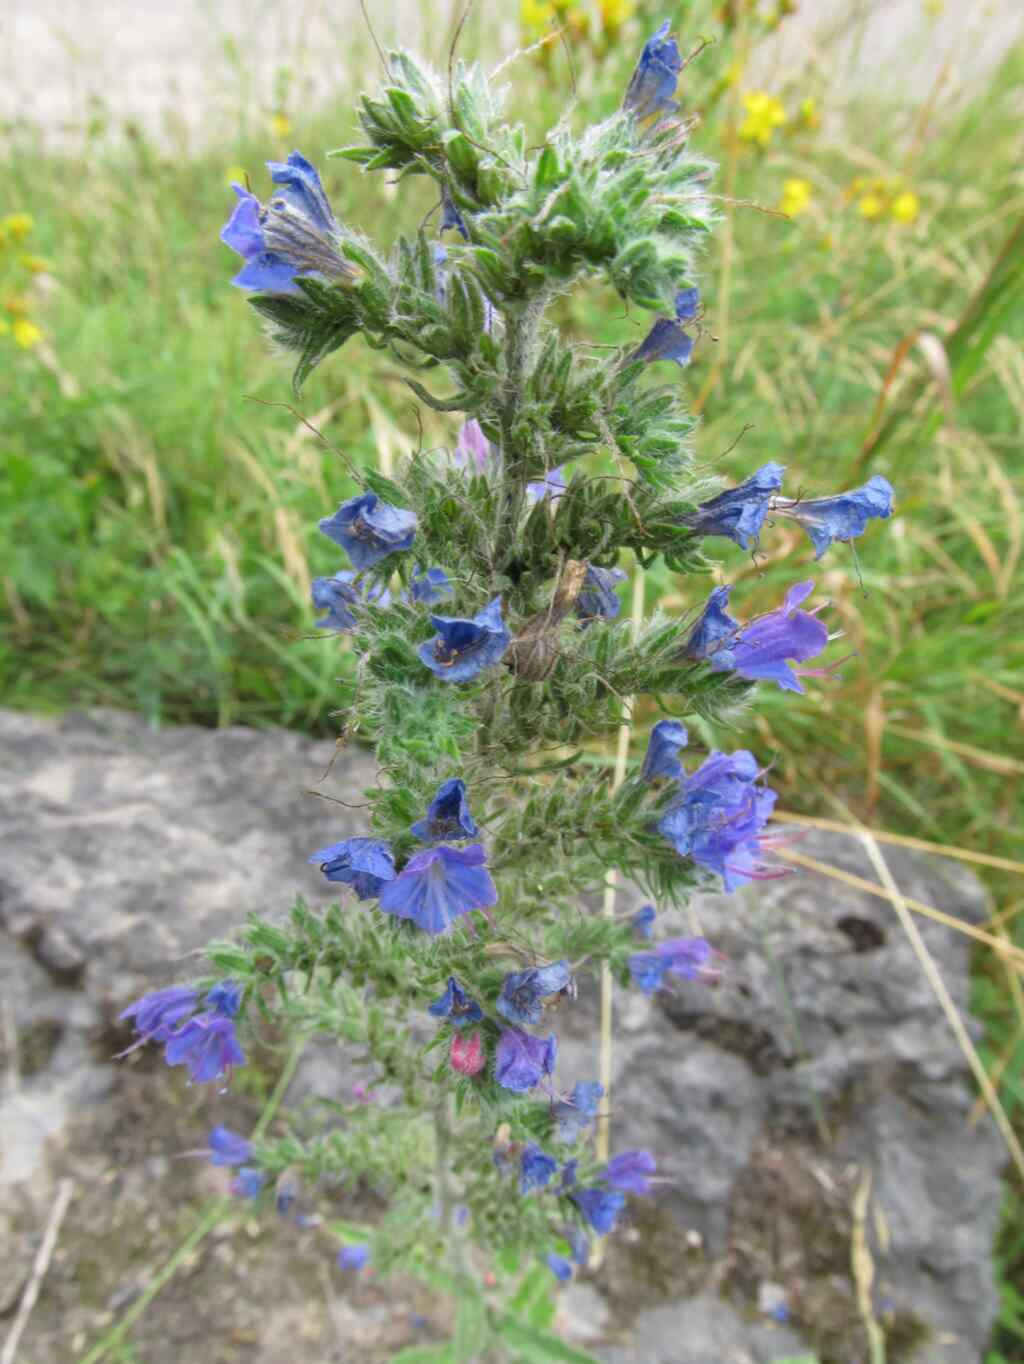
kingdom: Plantae
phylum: Tracheophyta
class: Magnoliopsida
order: Boraginales
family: Boraginaceae
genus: Echium
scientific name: Echium vulgare
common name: Common viper's bugloss
